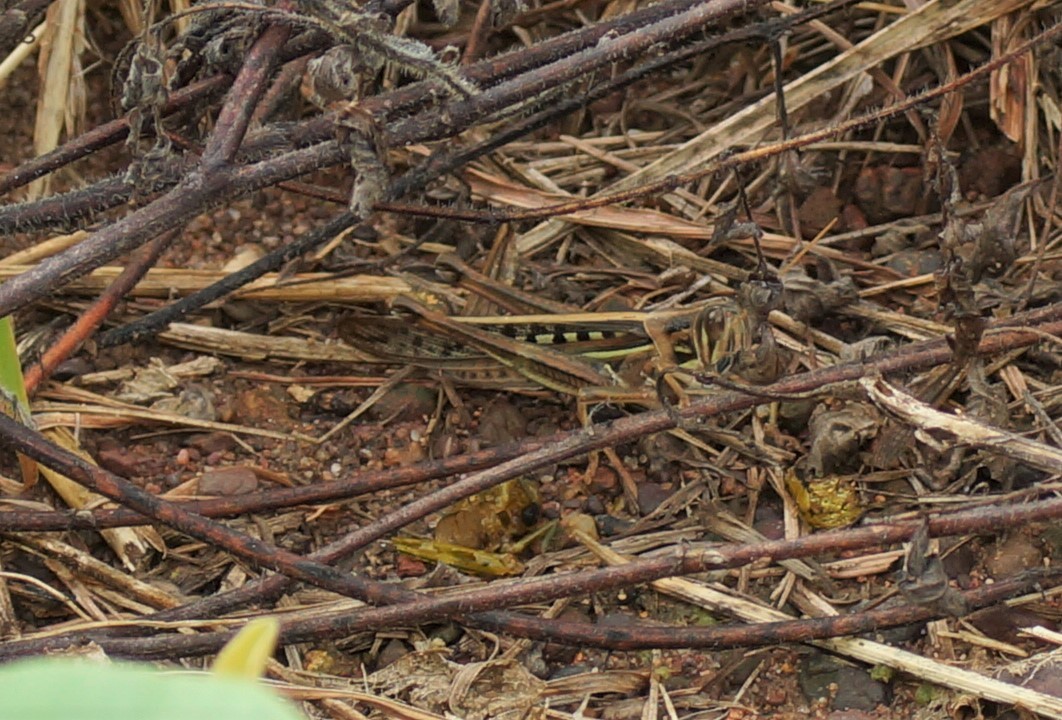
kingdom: Animalia
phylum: Arthropoda
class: Insecta
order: Orthoptera
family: Acrididae
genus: Austracris
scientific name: Austracris guttulosa
